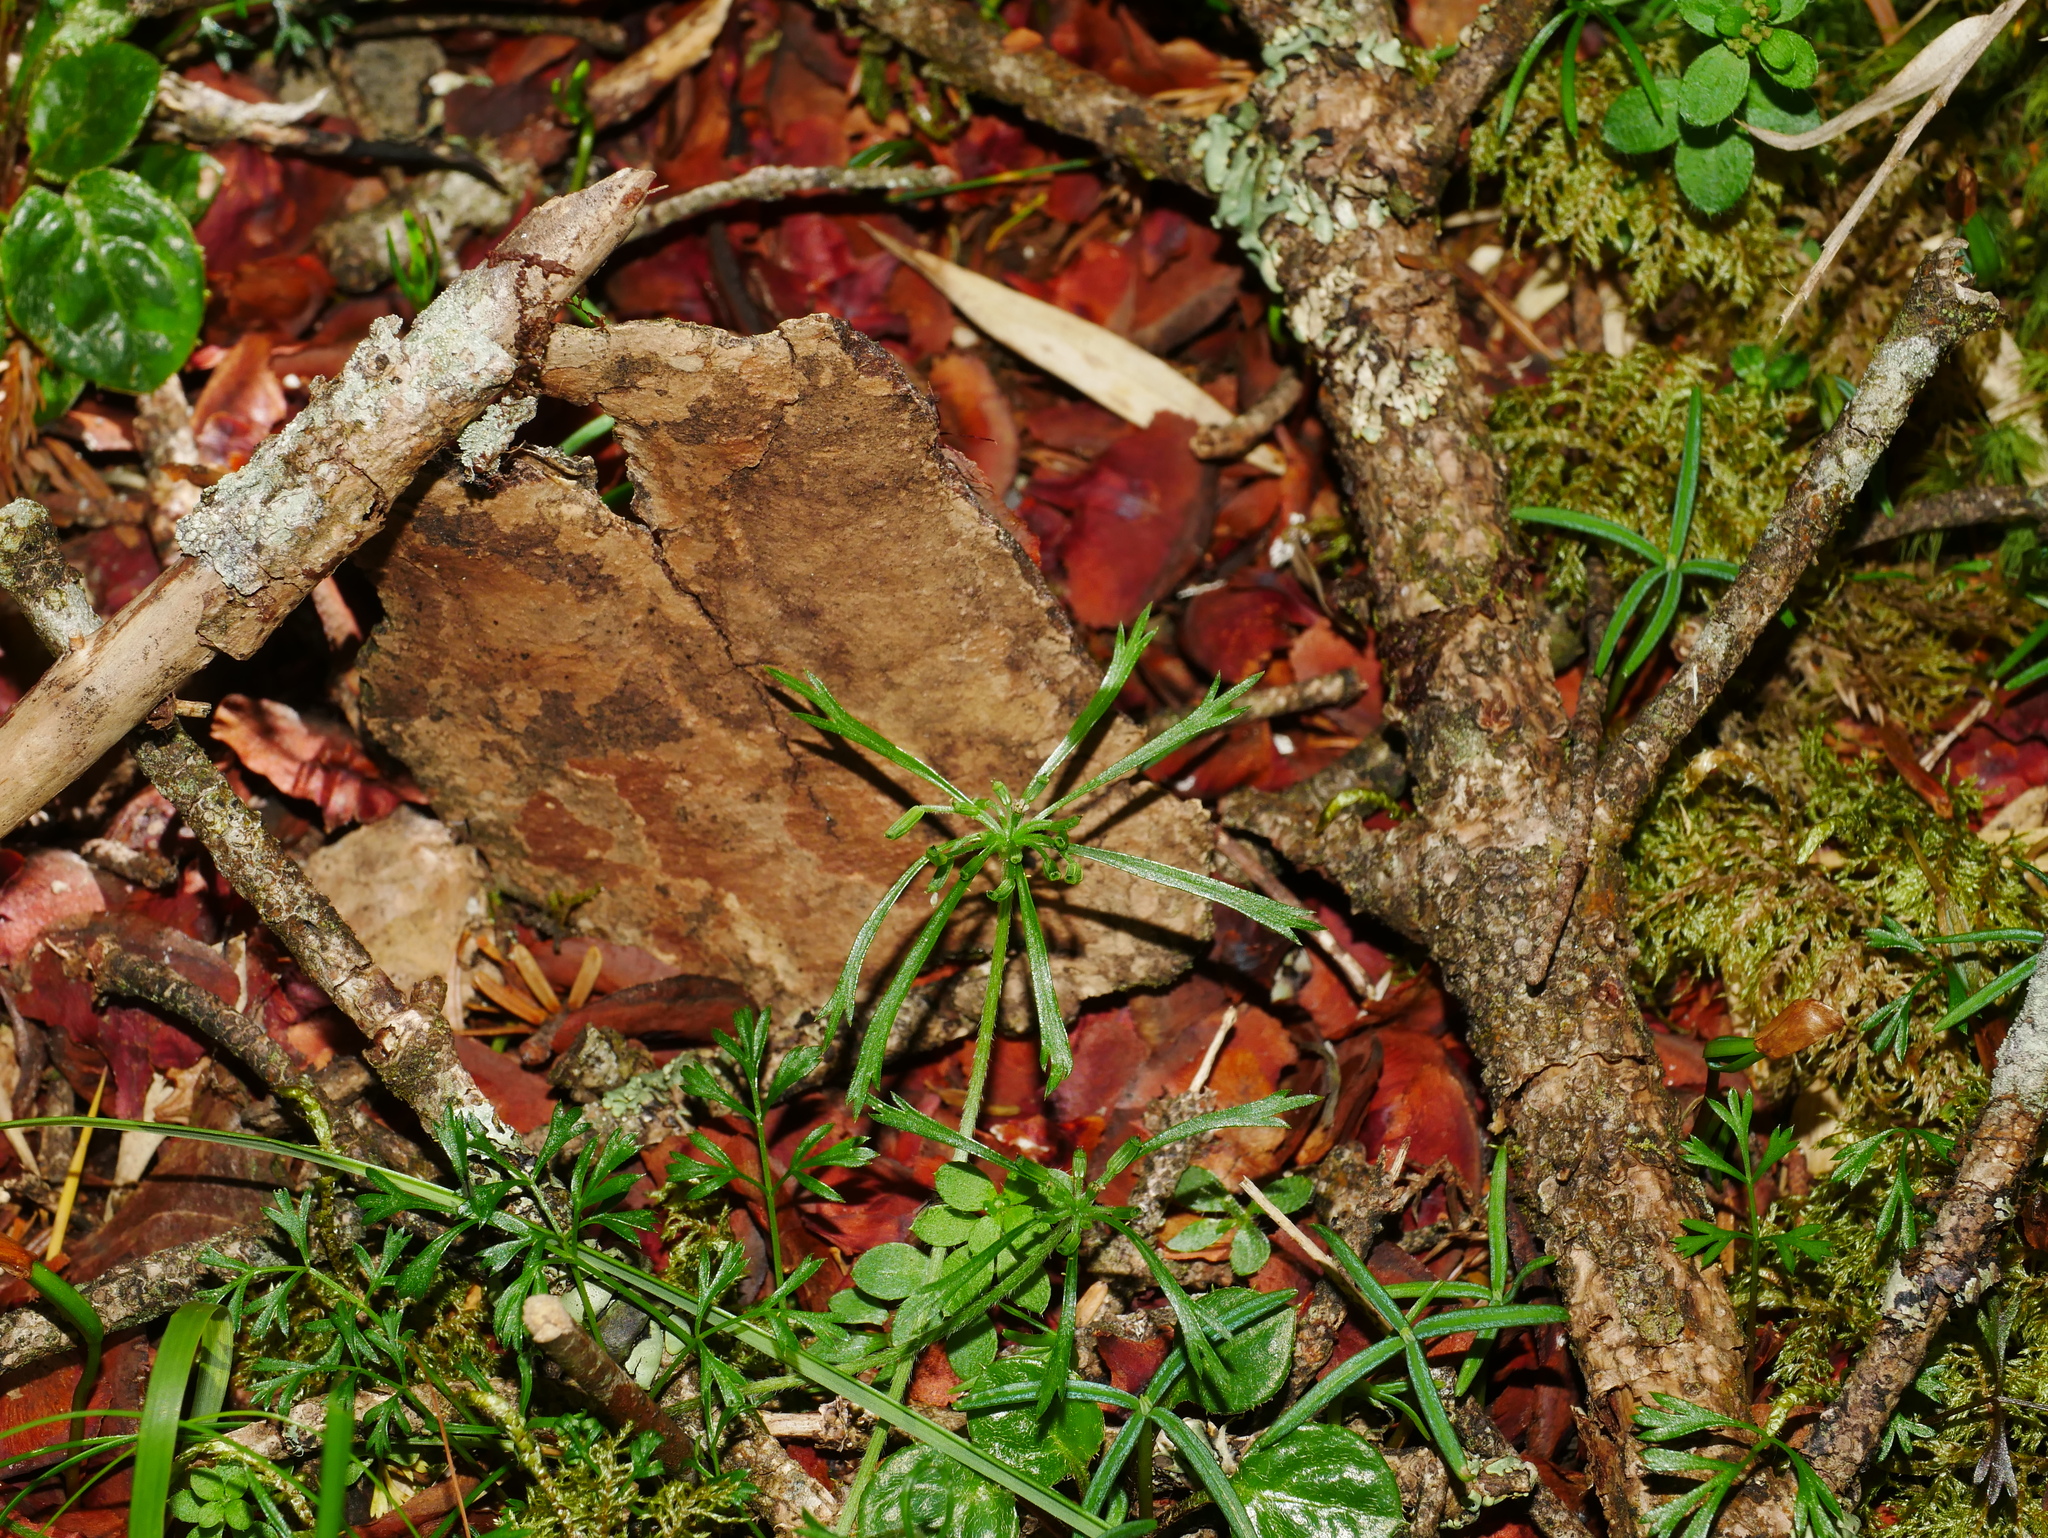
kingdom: Plantae
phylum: Tracheophyta
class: Magnoliopsida
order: Apiales
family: Apiaceae
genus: Chaerophyllum
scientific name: Chaerophyllum involucratum
